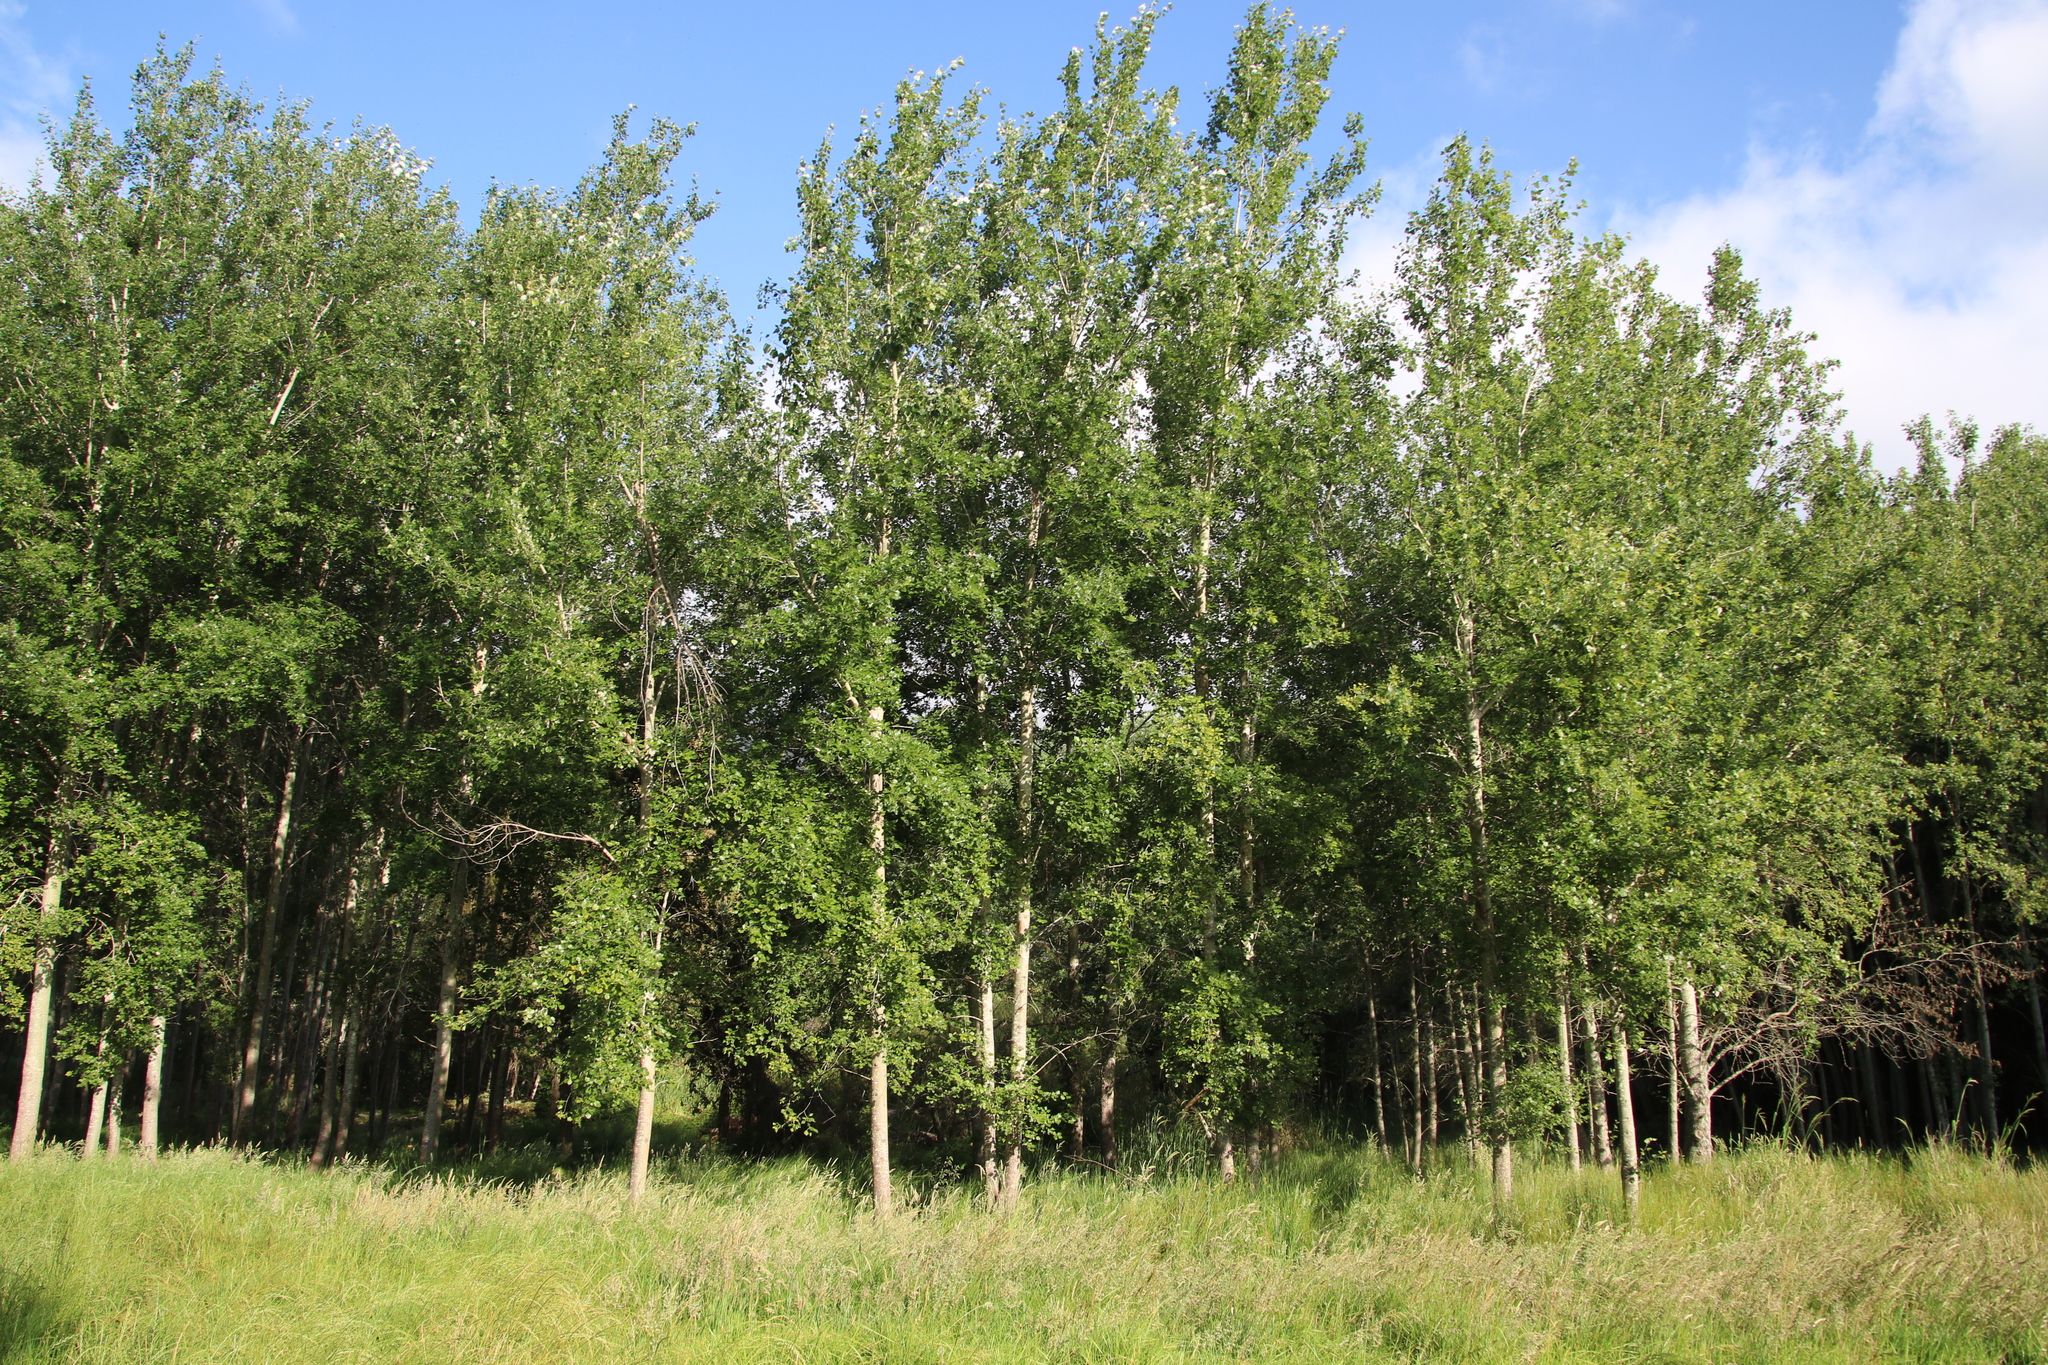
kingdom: Plantae
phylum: Tracheophyta
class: Magnoliopsida
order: Malpighiales
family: Salicaceae
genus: Populus
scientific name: Populus canescens
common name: Gray poplar
